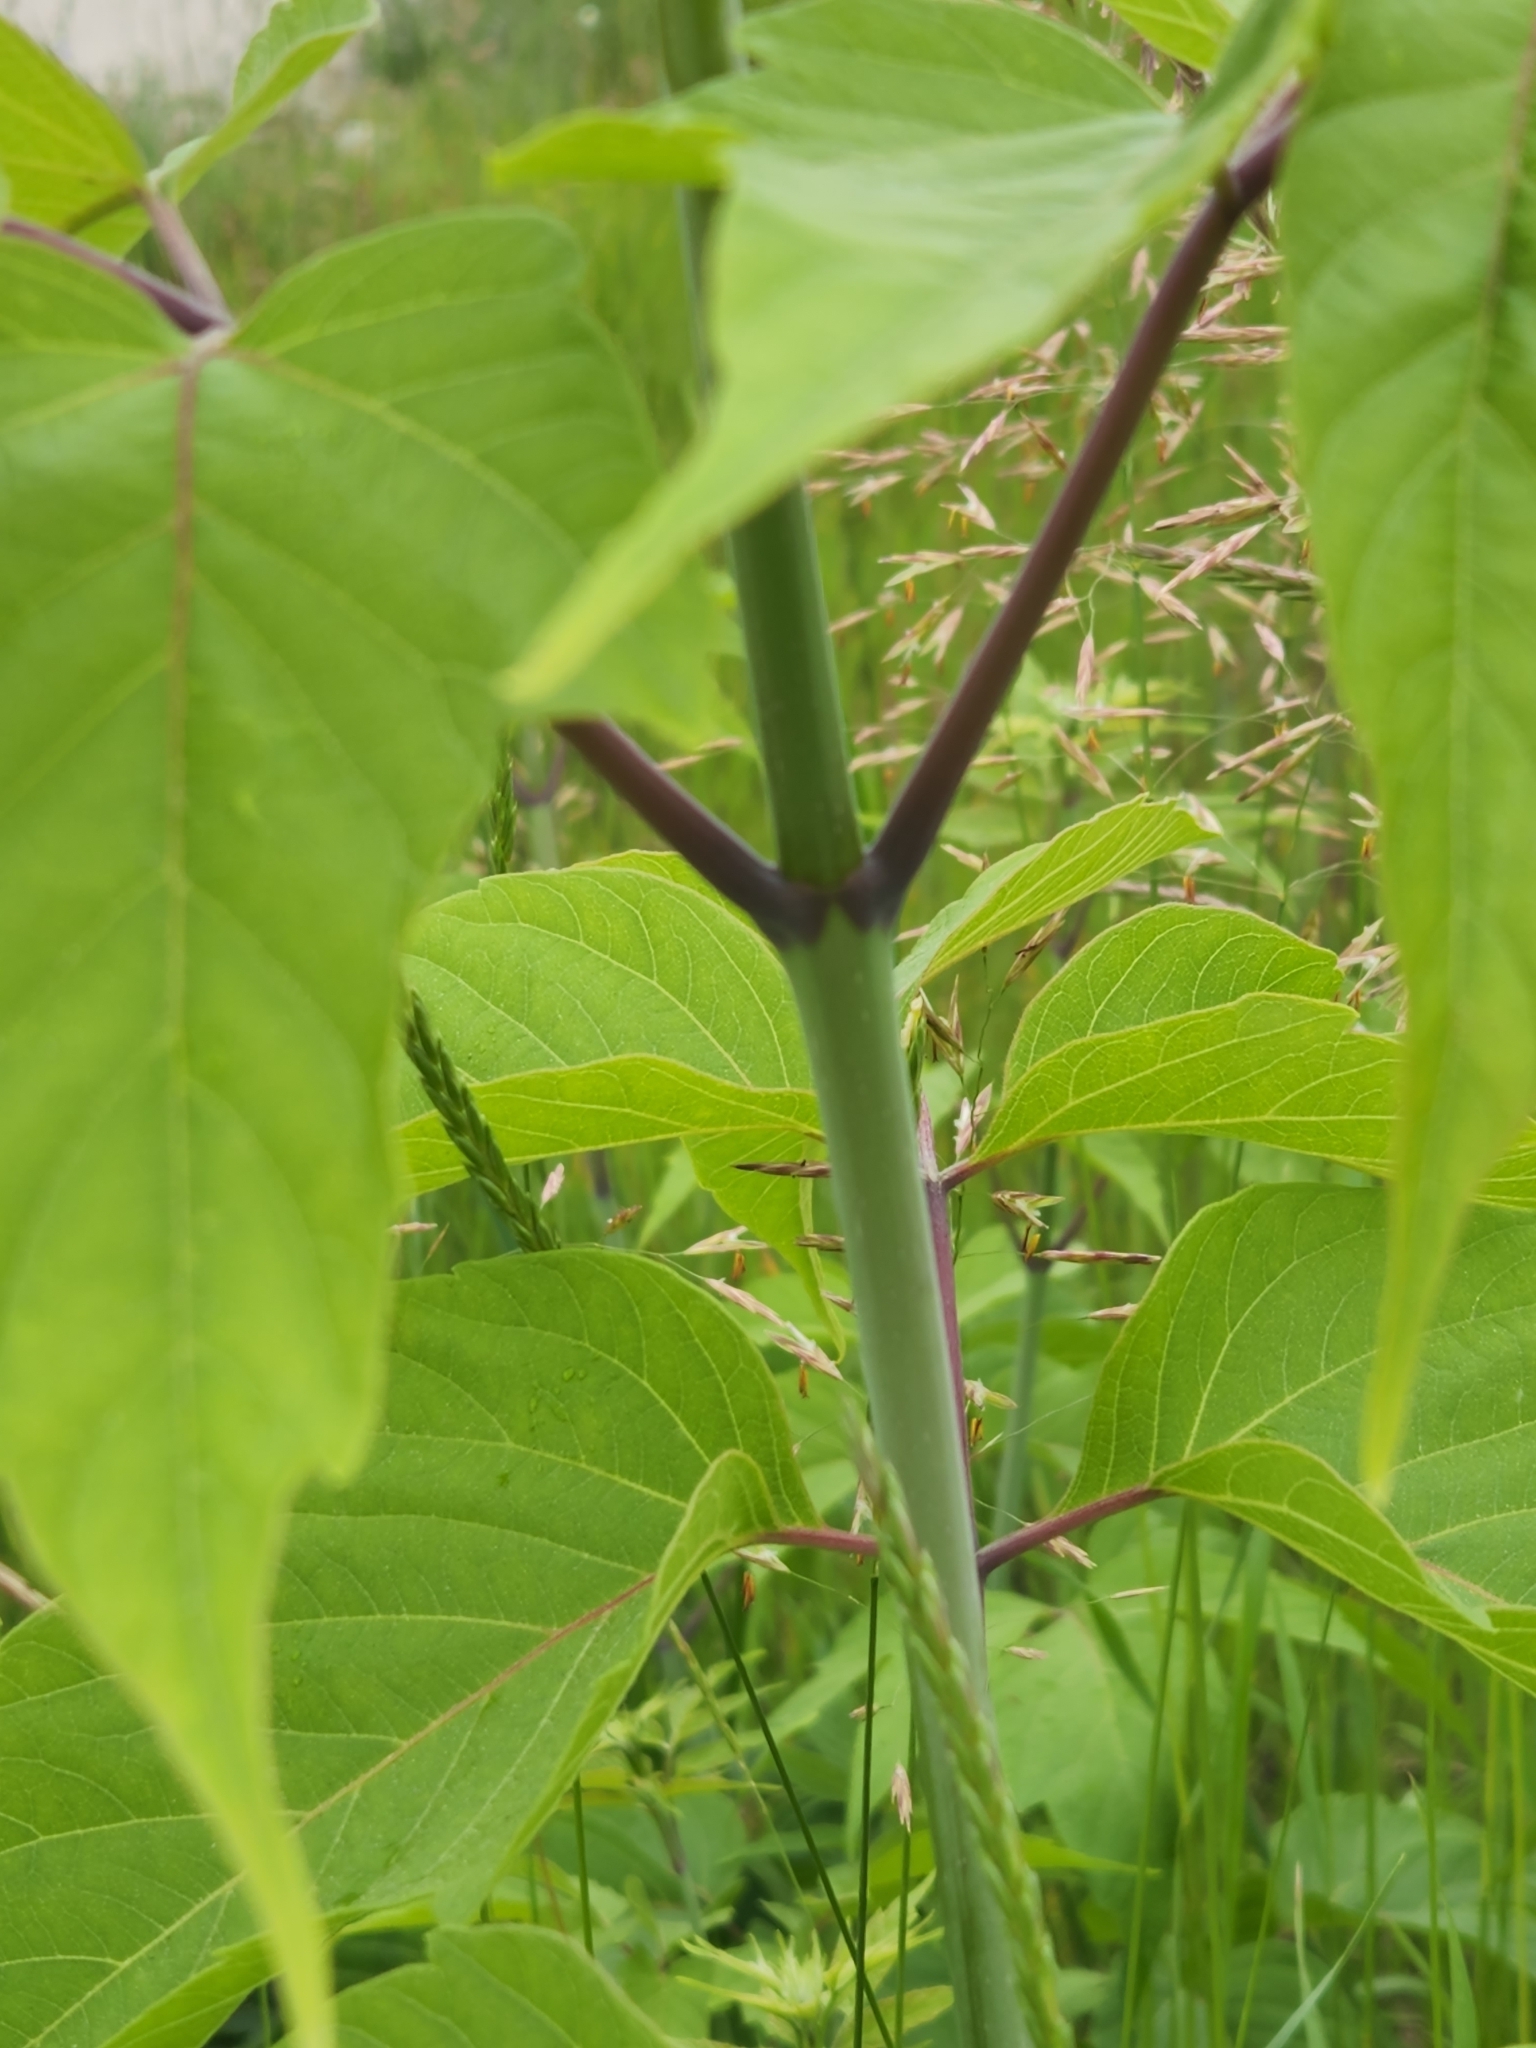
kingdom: Plantae
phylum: Tracheophyta
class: Magnoliopsida
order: Sapindales
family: Sapindaceae
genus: Acer
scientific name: Acer negundo
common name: Ashleaf maple
